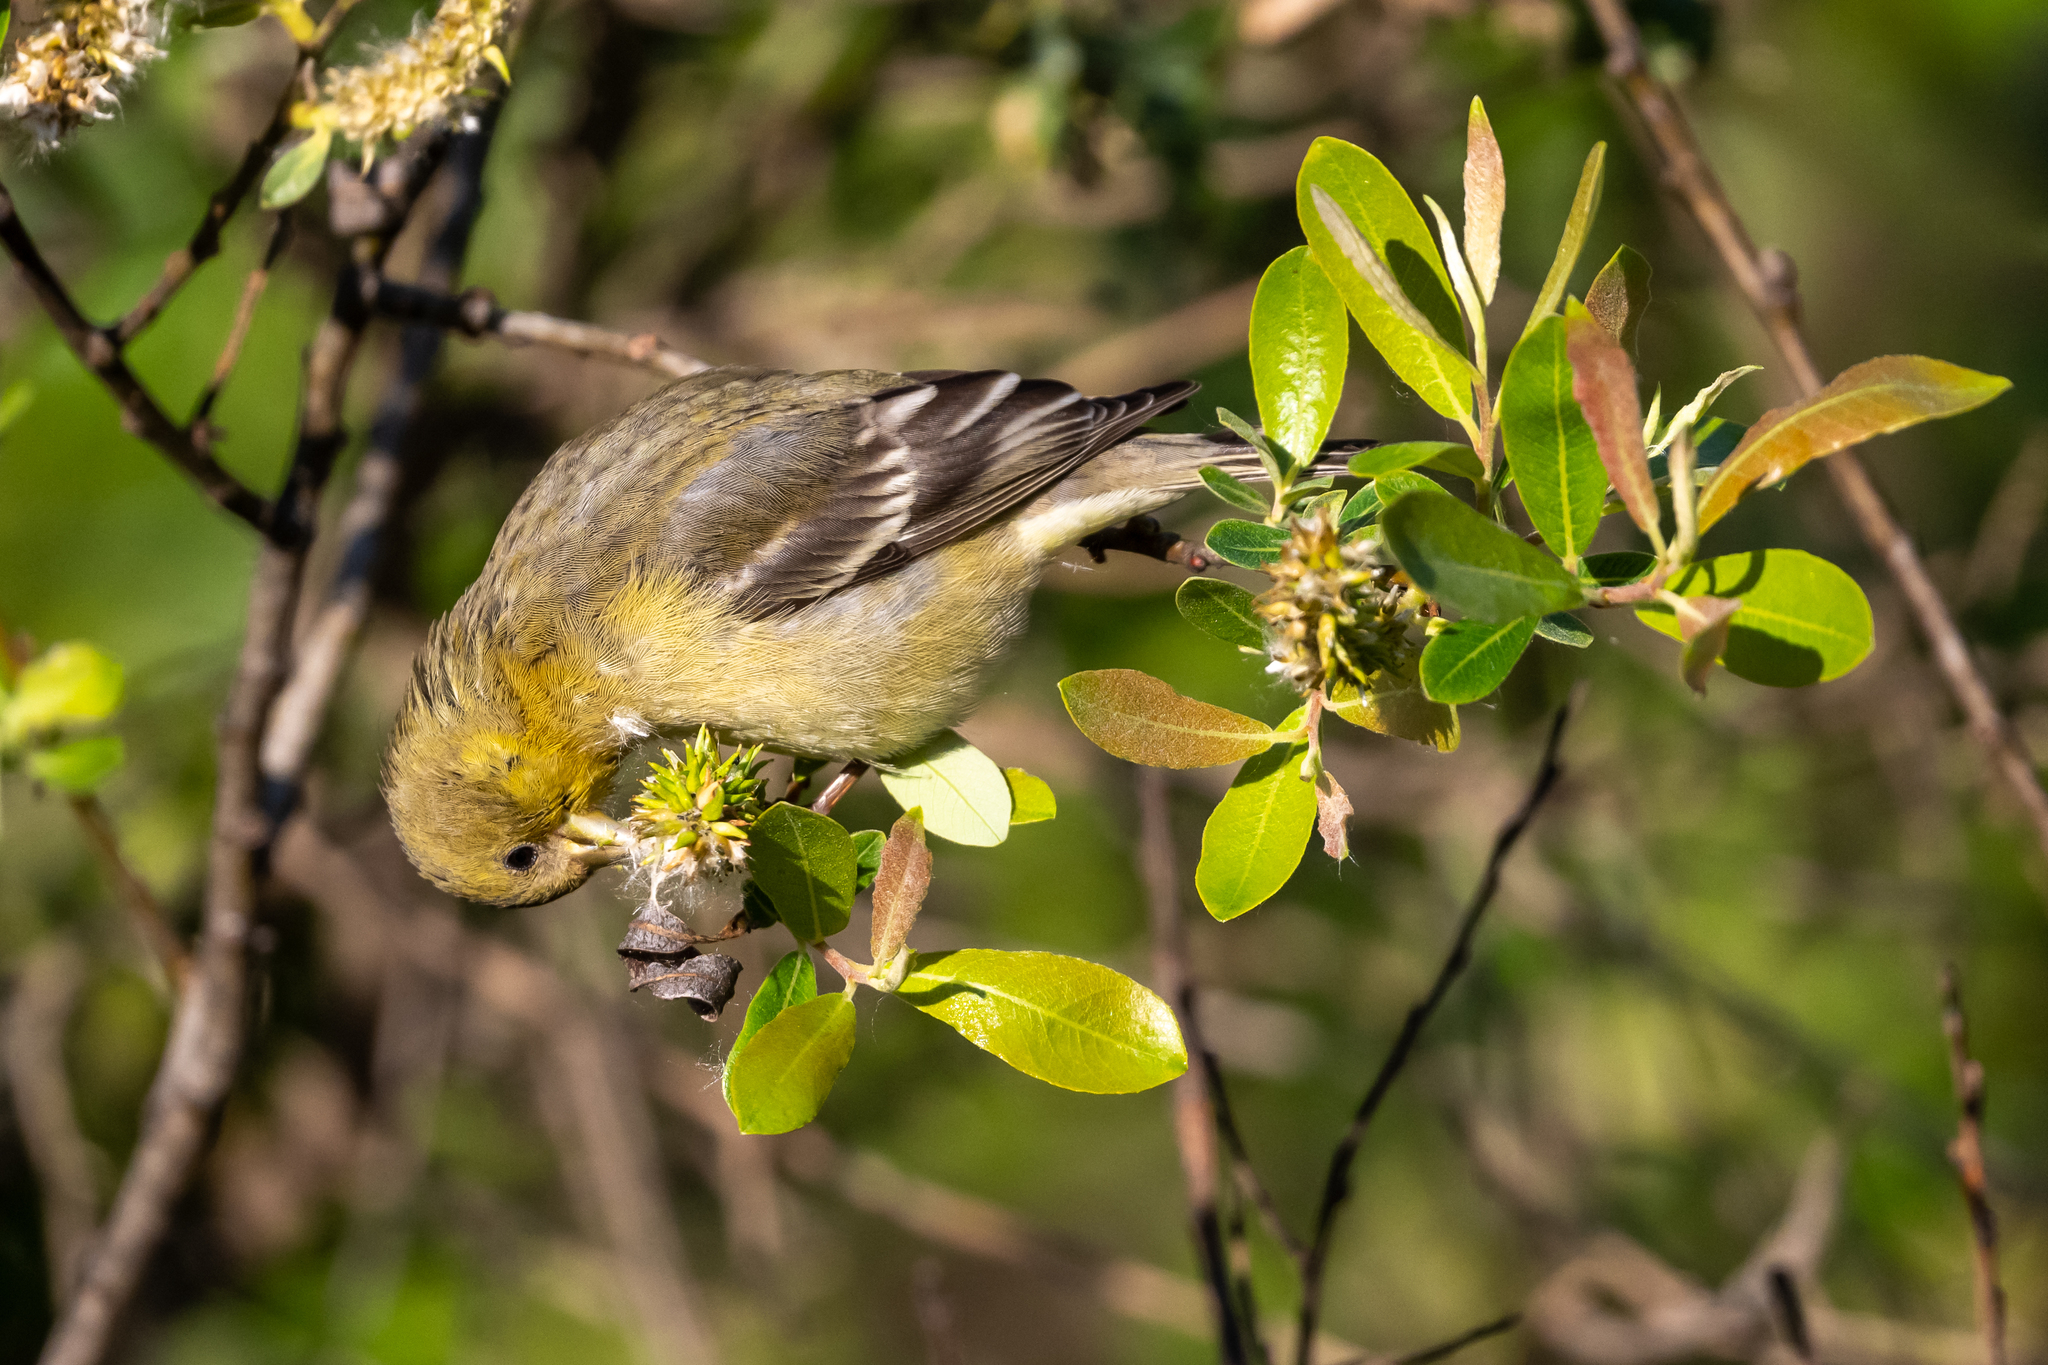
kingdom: Animalia
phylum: Chordata
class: Aves
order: Passeriformes
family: Fringillidae
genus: Spinus
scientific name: Spinus psaltria
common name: Lesser goldfinch
